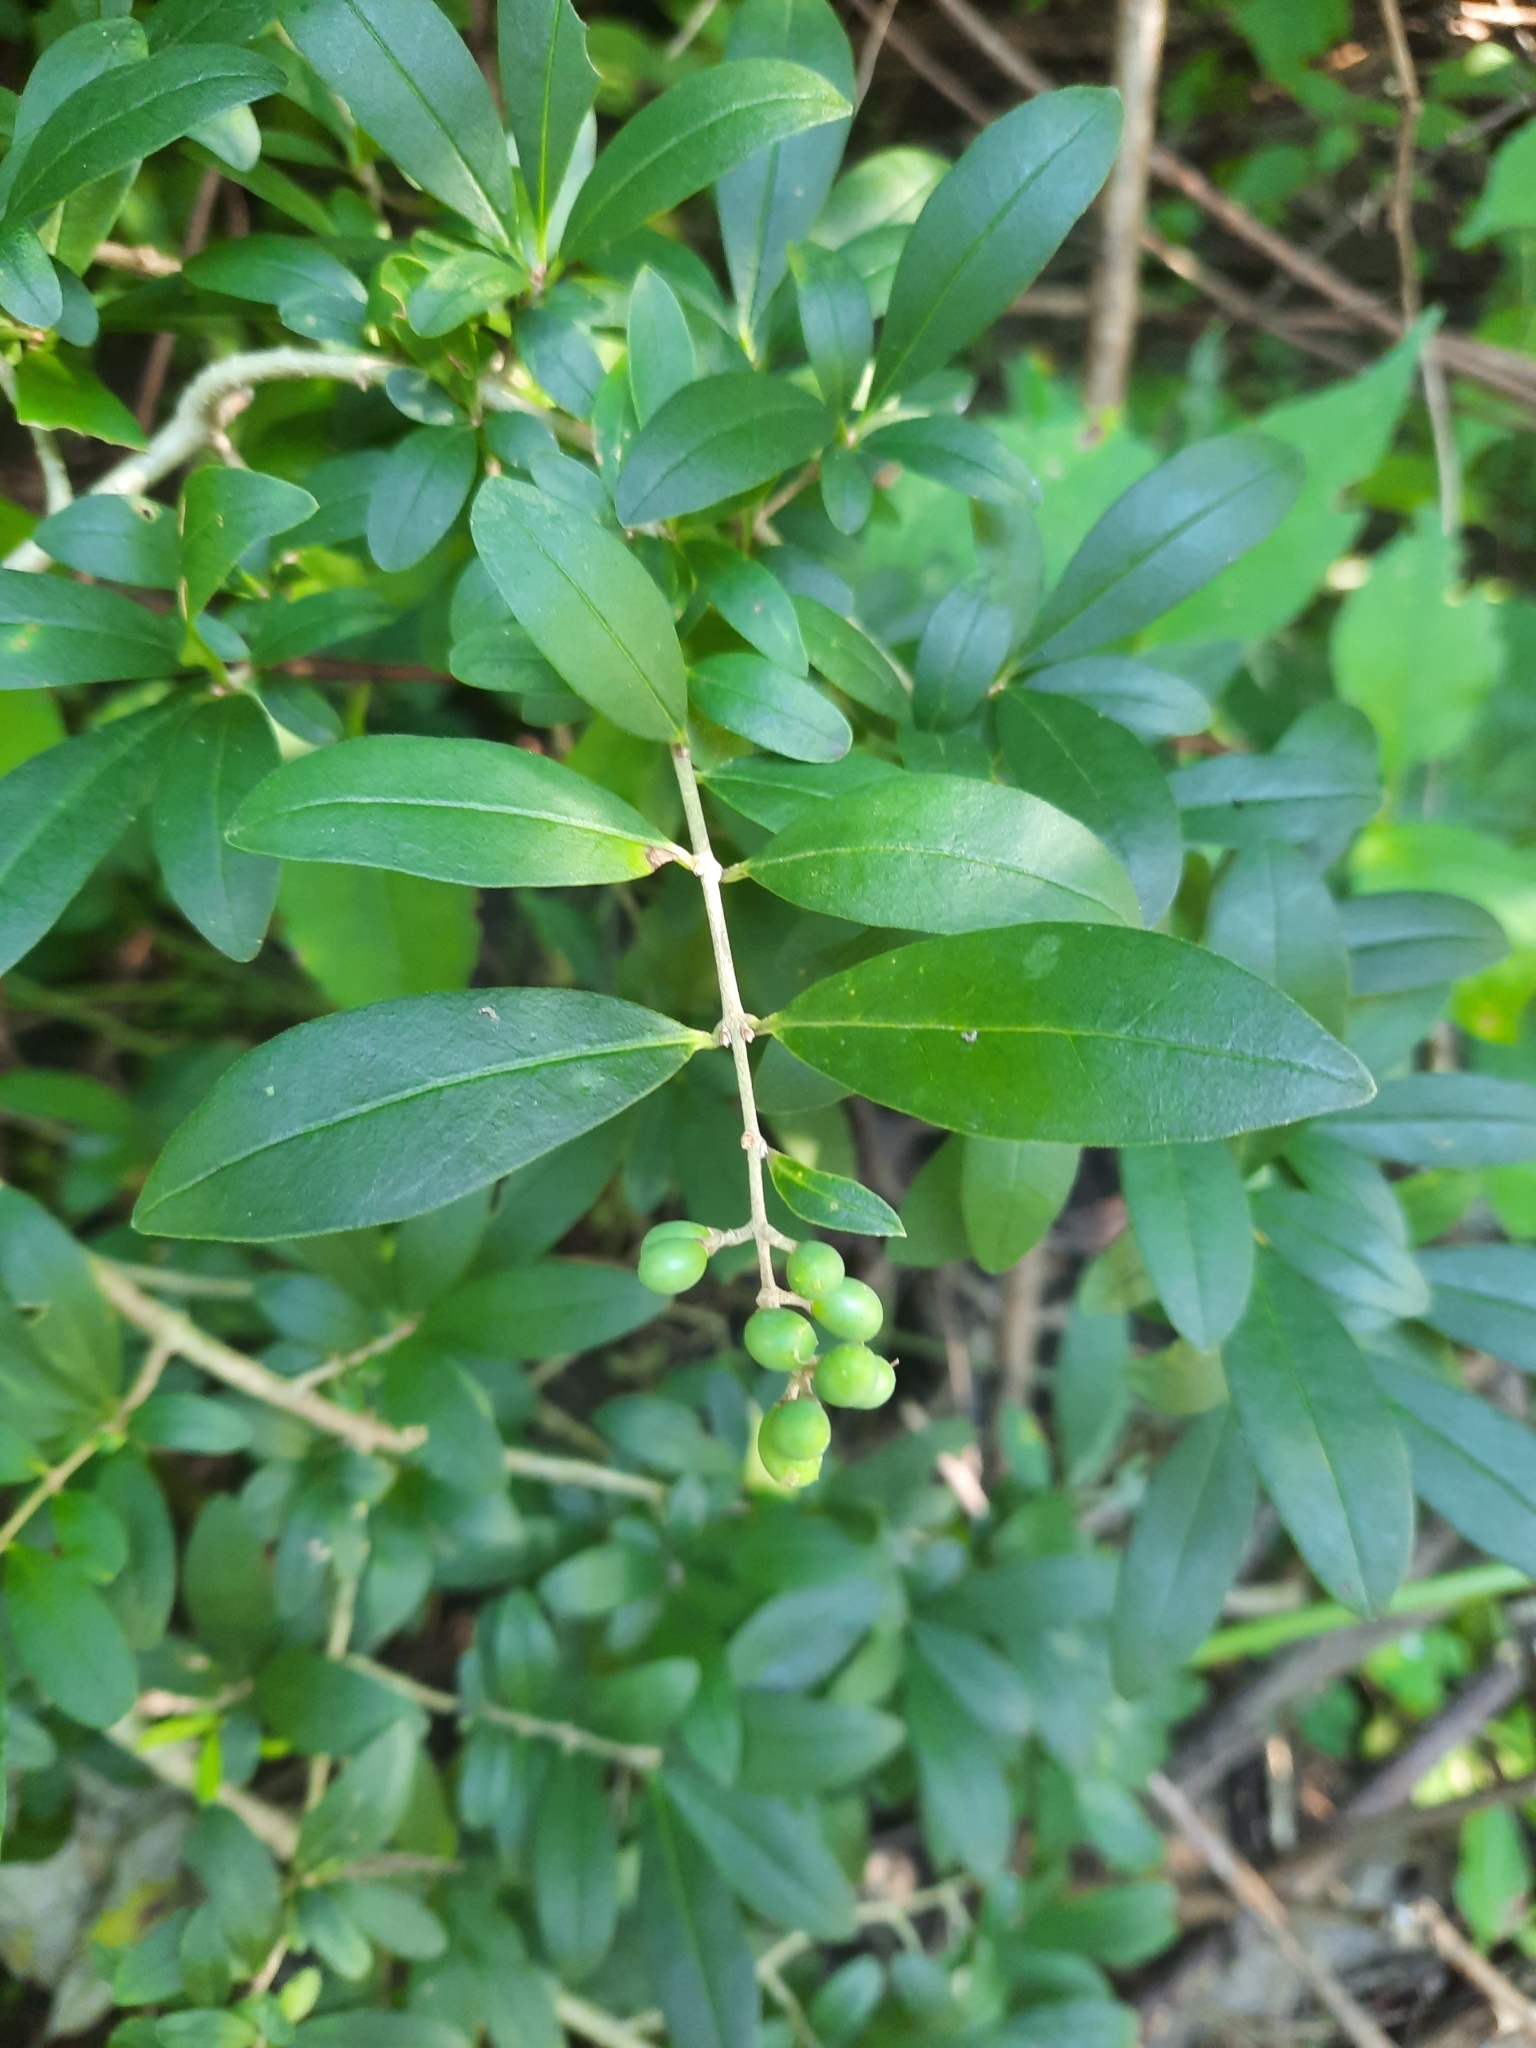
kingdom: Plantae
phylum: Tracheophyta
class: Magnoliopsida
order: Lamiales
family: Oleaceae
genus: Ligustrum
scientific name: Ligustrum obtusifolium
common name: Border privet
